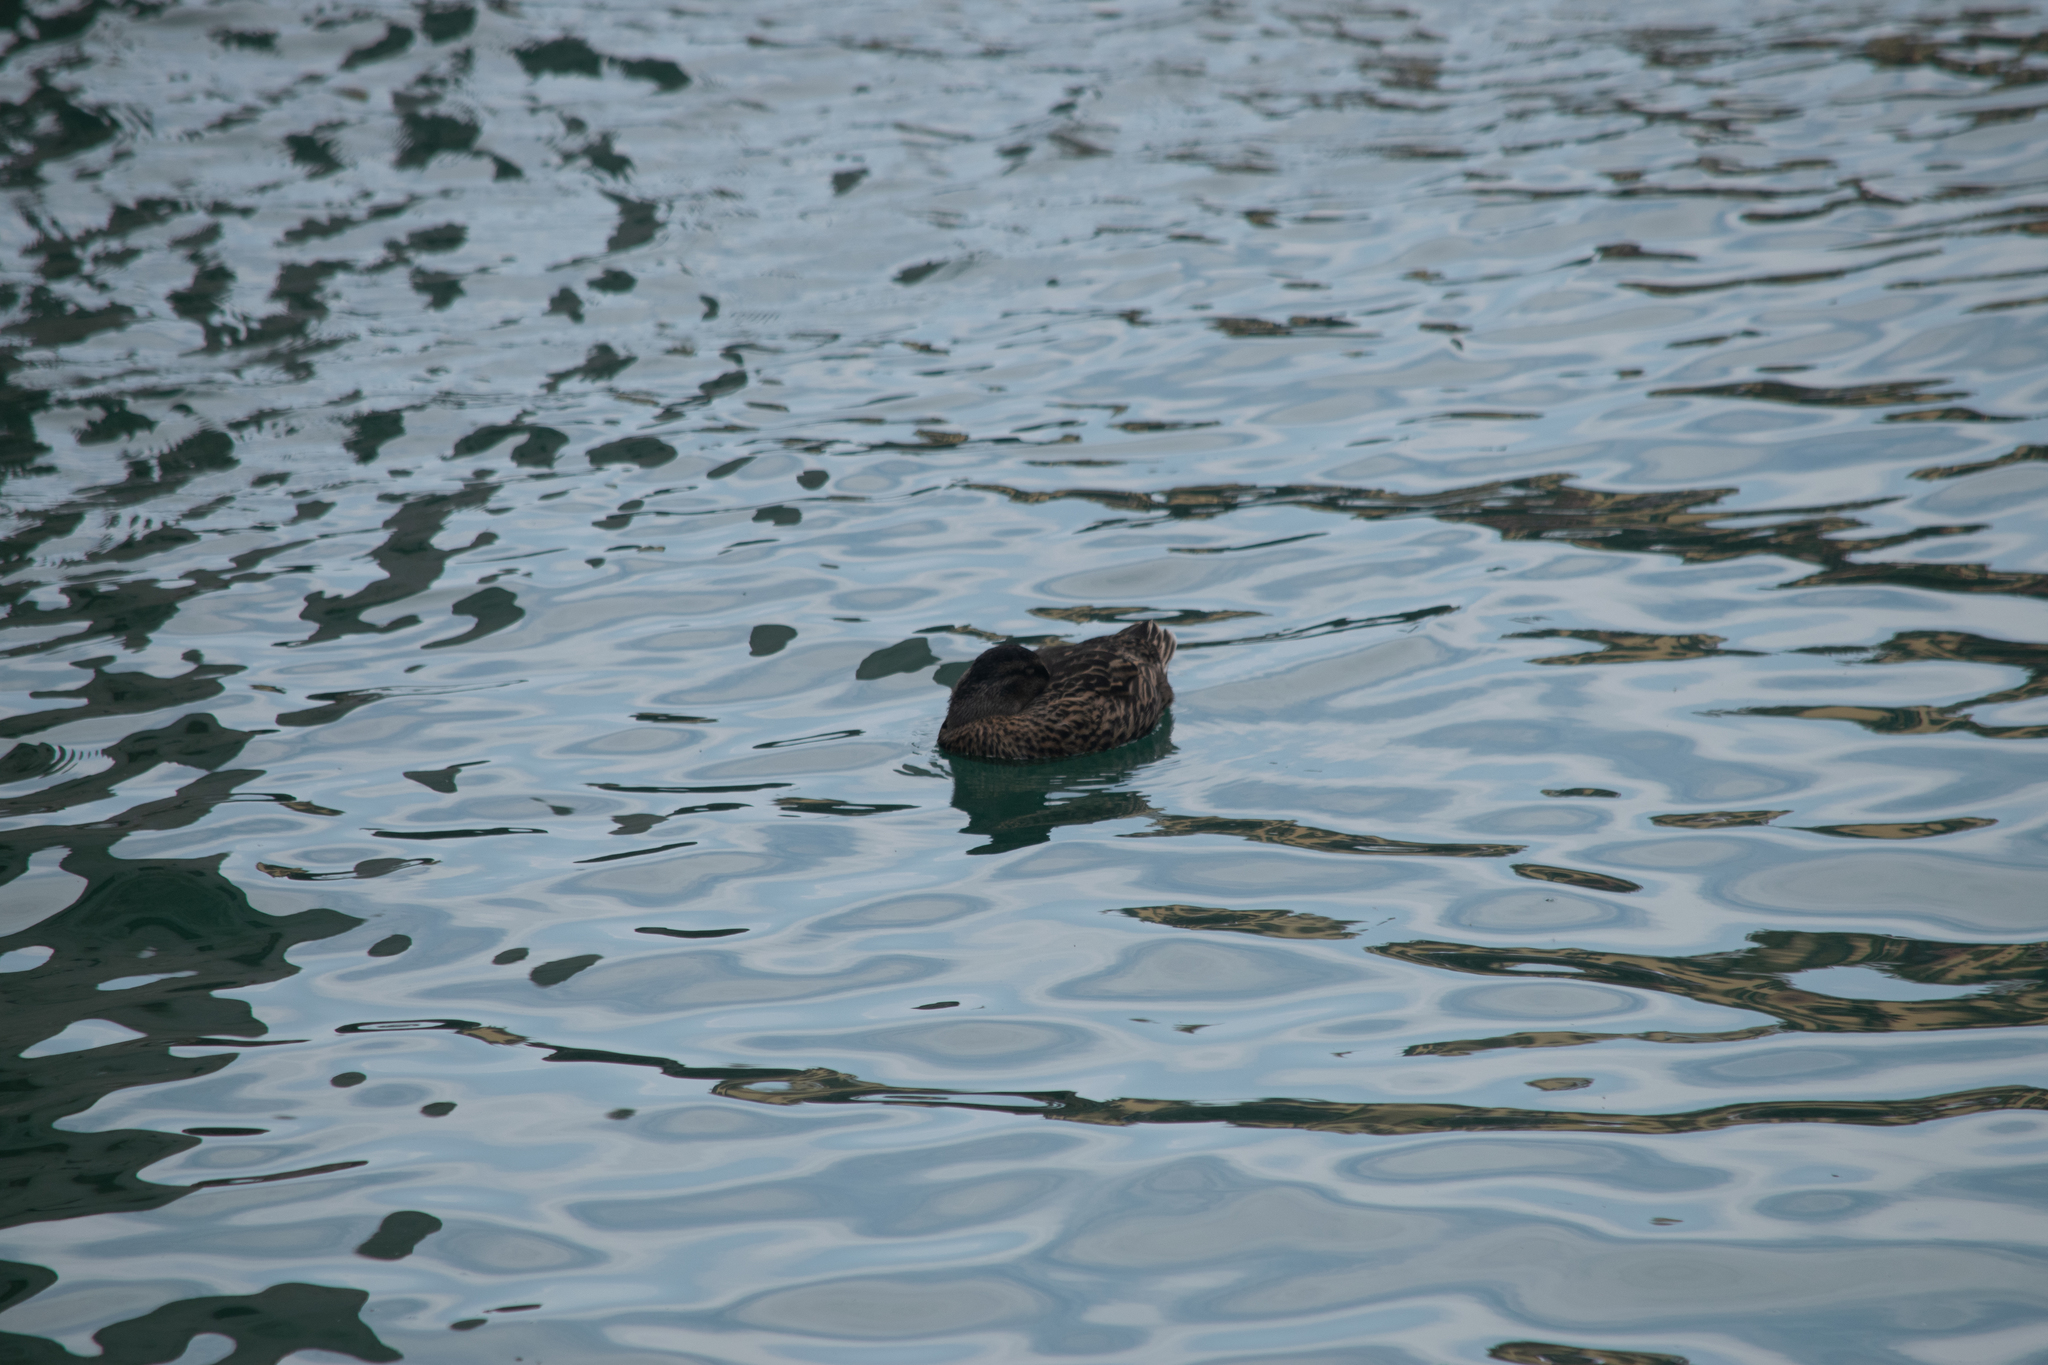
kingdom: Animalia
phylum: Chordata
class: Aves
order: Anseriformes
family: Anatidae
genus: Anas
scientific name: Anas platyrhynchos
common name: Mallard
